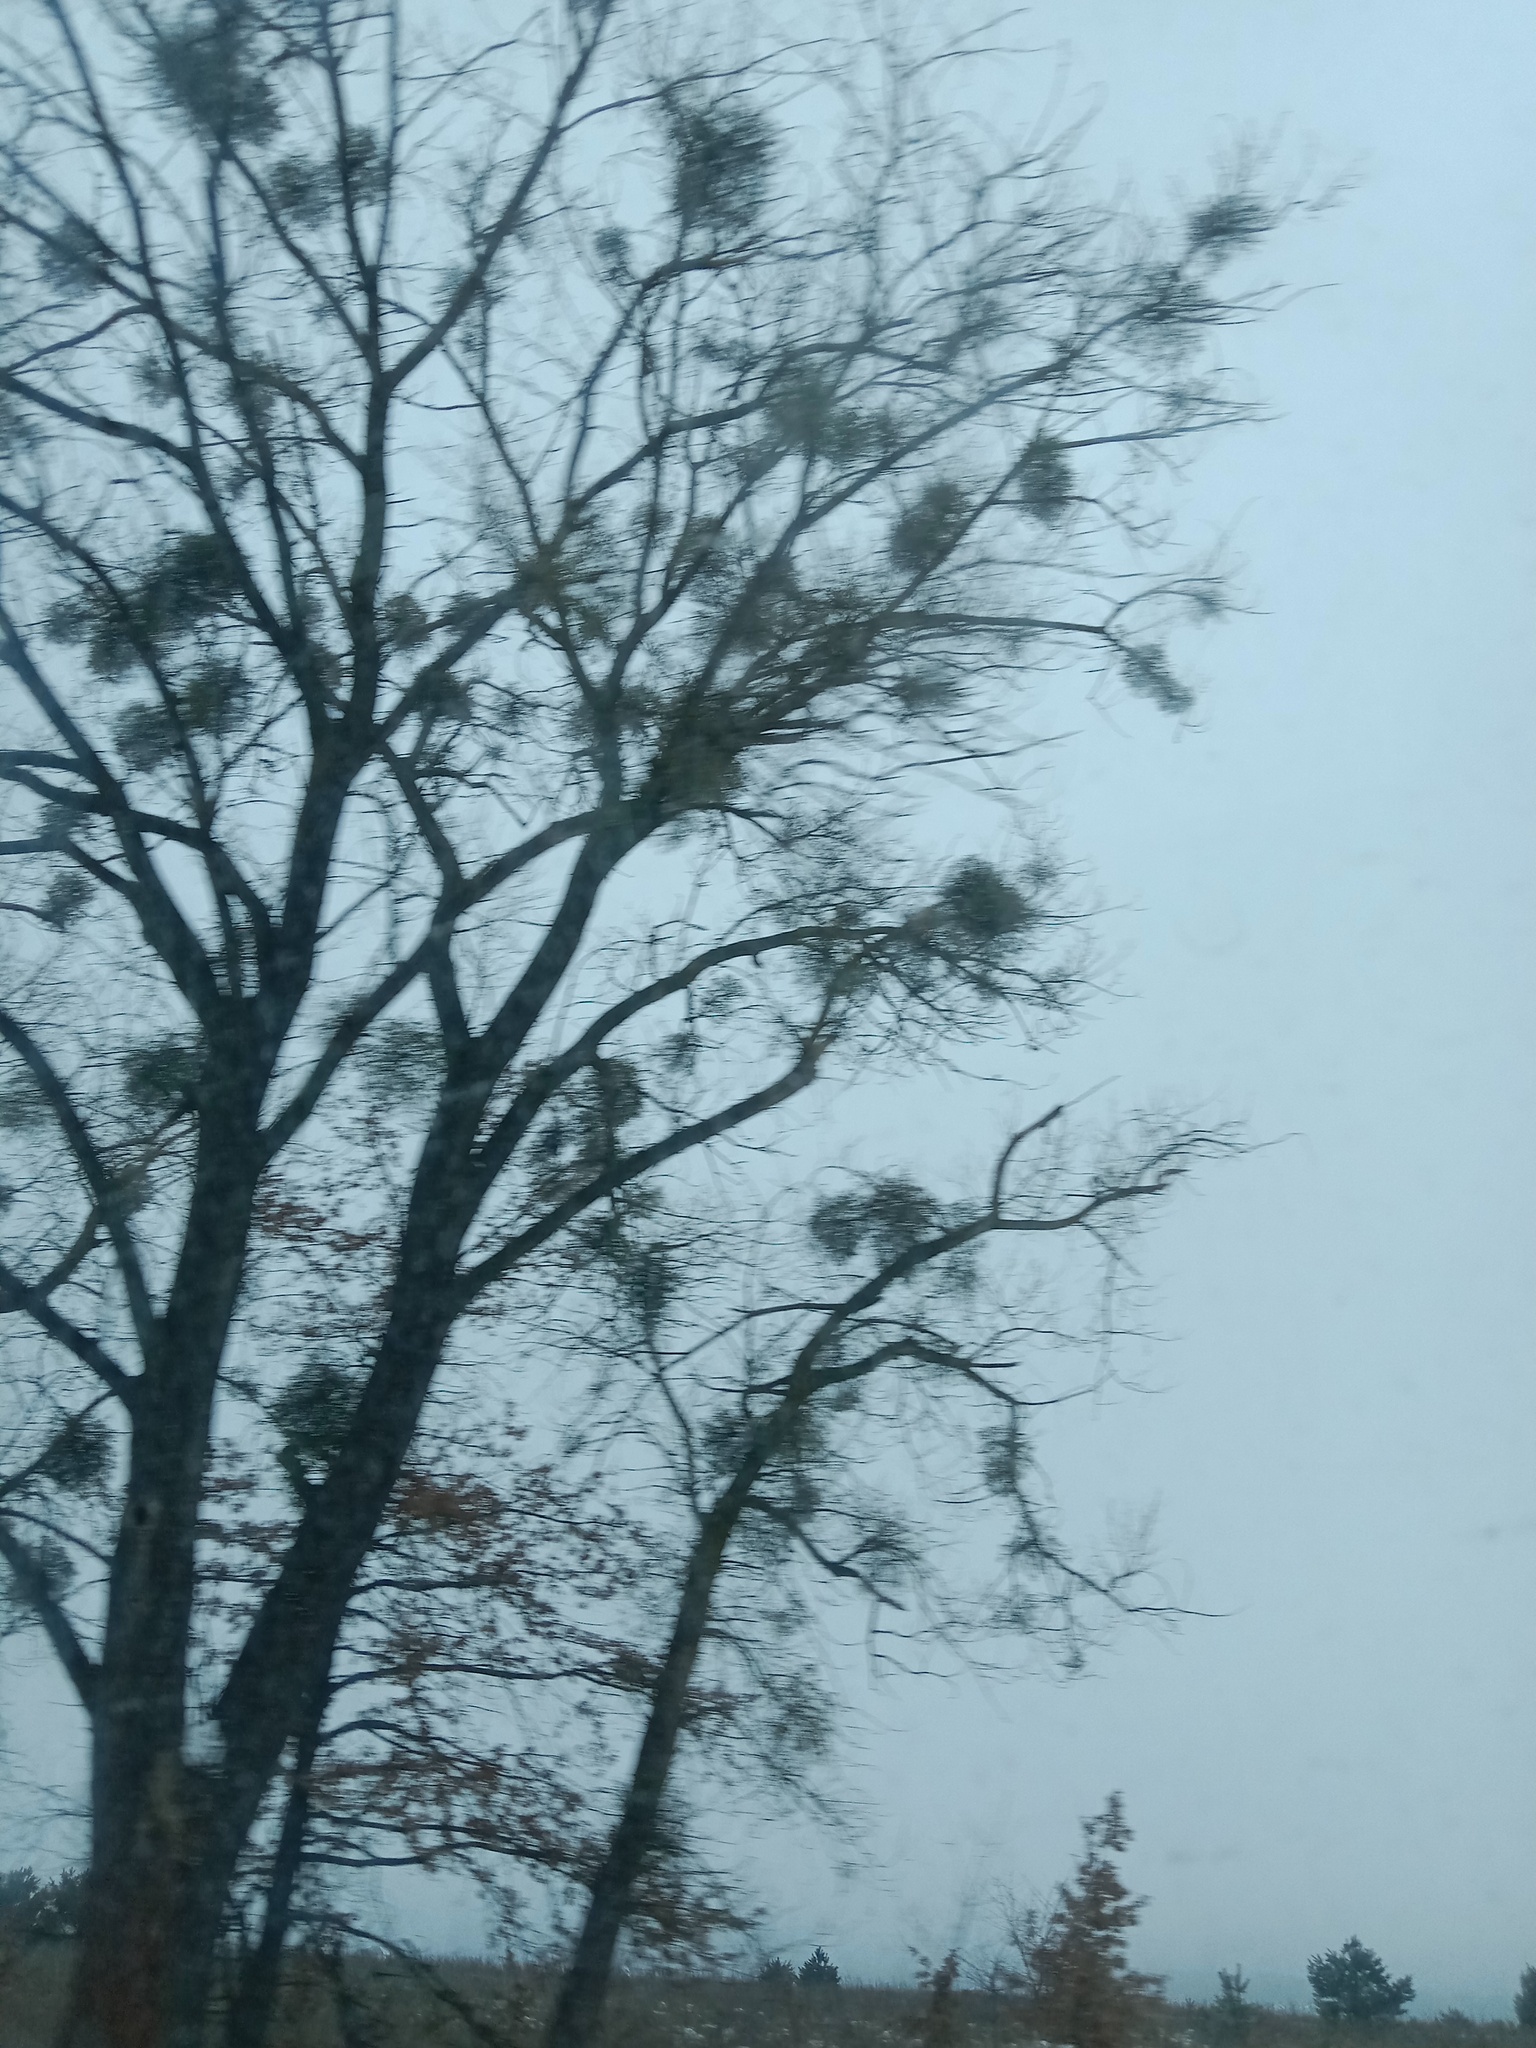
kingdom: Plantae
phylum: Tracheophyta
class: Magnoliopsida
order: Santalales
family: Viscaceae
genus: Viscum
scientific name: Viscum album
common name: Mistletoe
